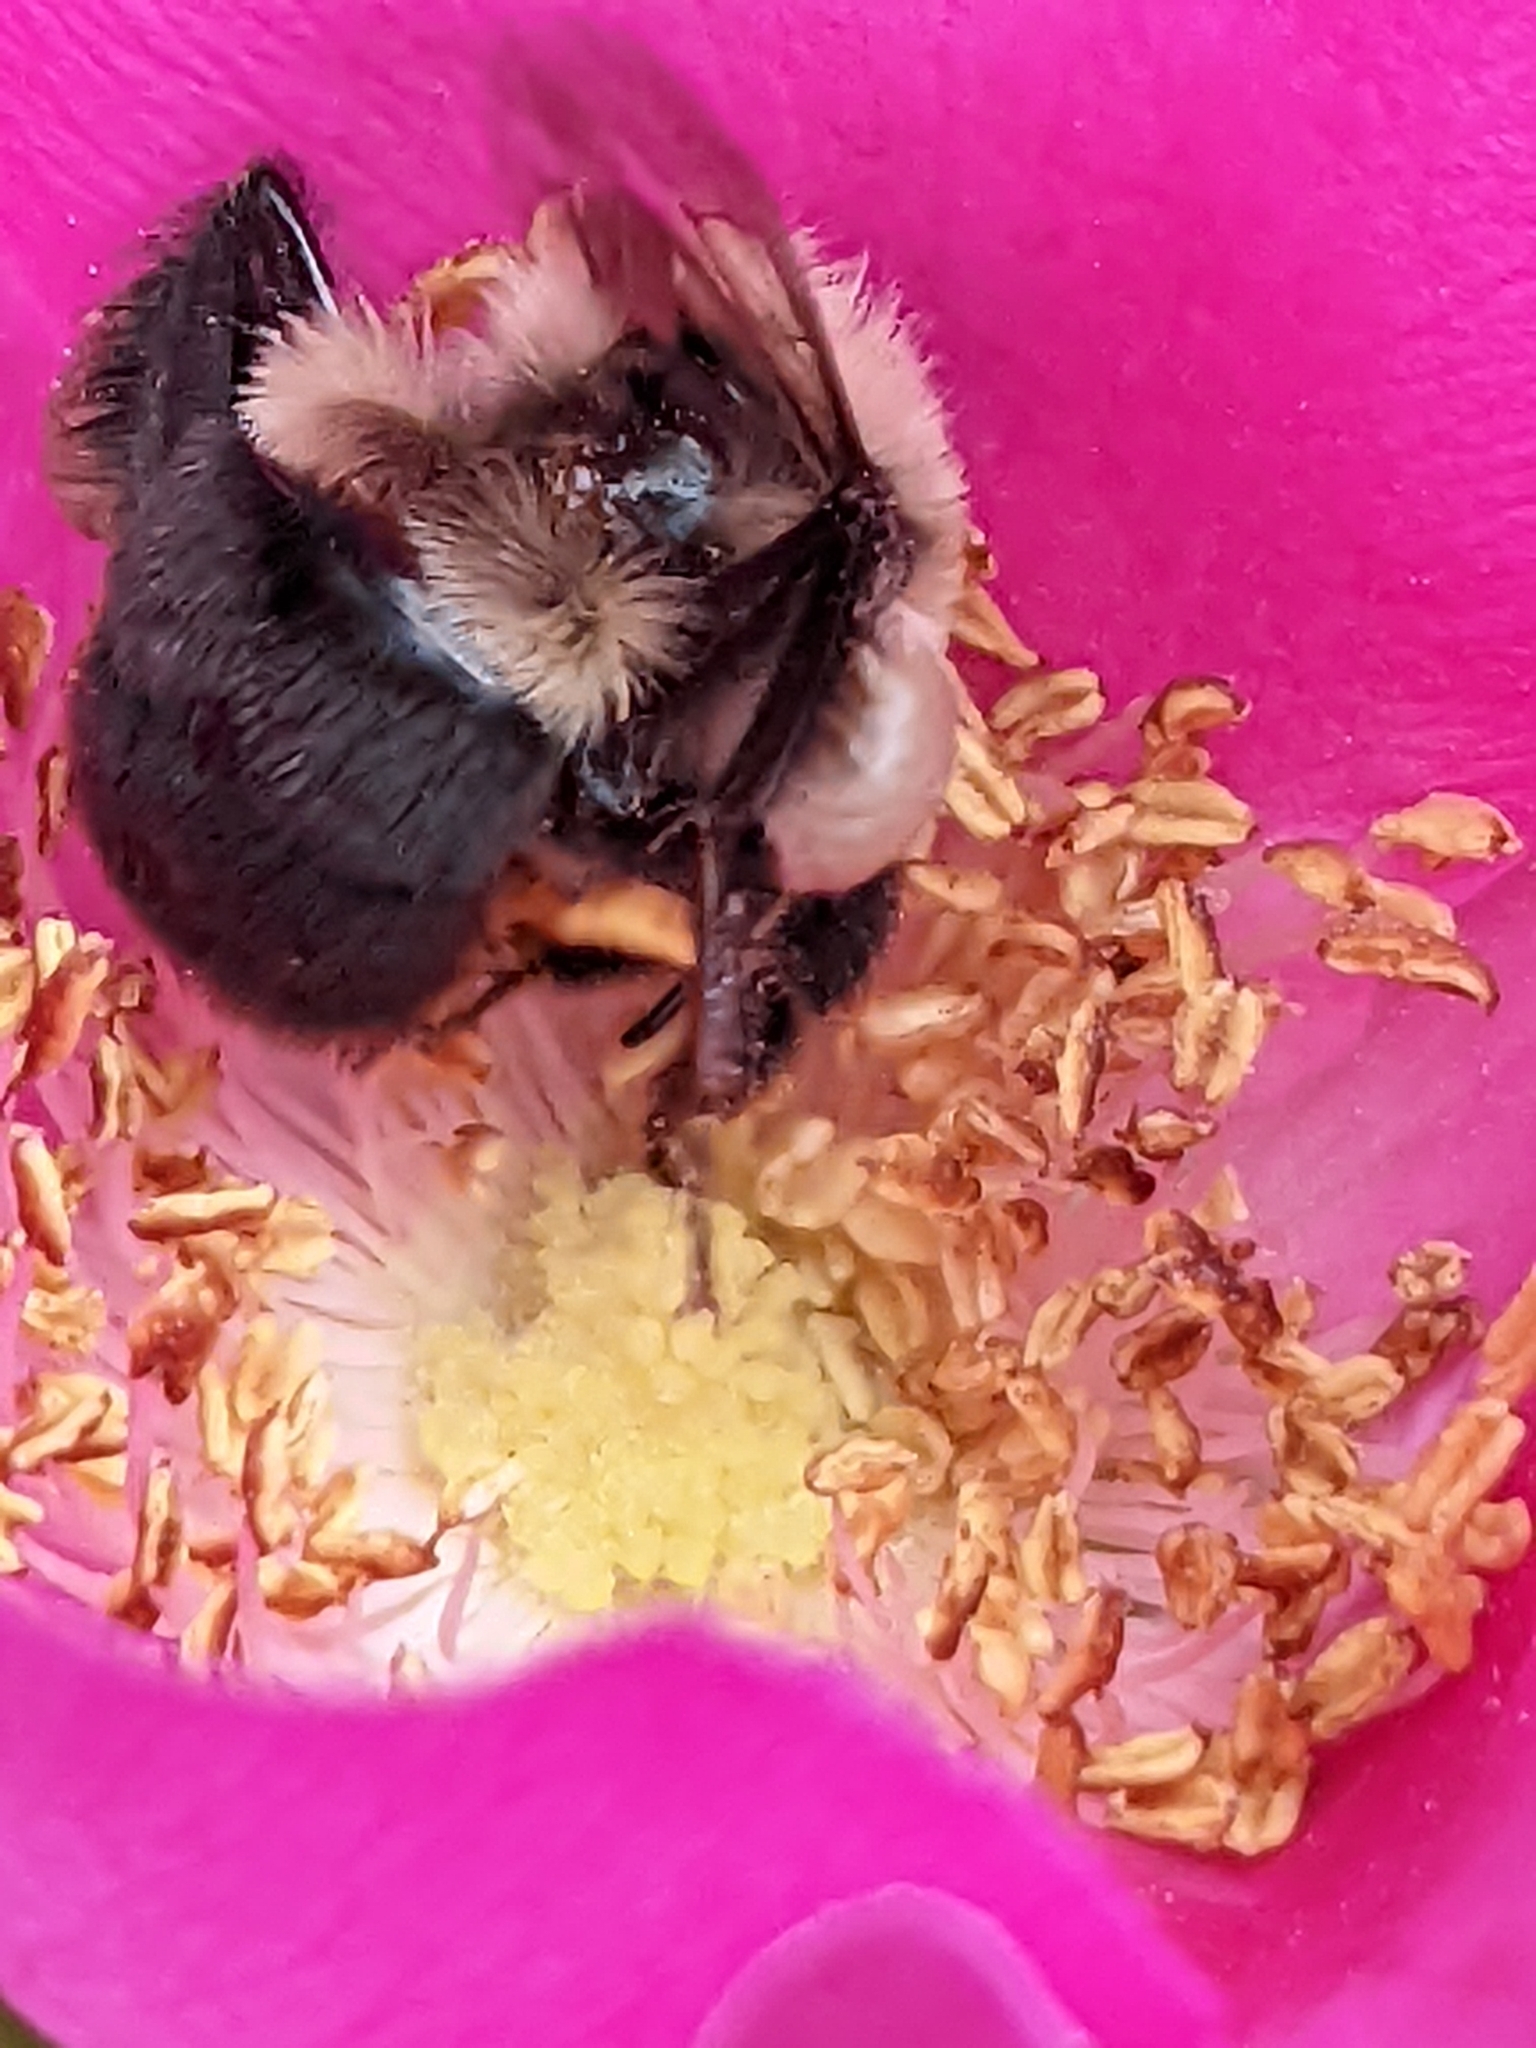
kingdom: Animalia
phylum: Arthropoda
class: Insecta
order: Hymenoptera
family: Apidae
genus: Bombus
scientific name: Bombus impatiens
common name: Common eastern bumble bee
